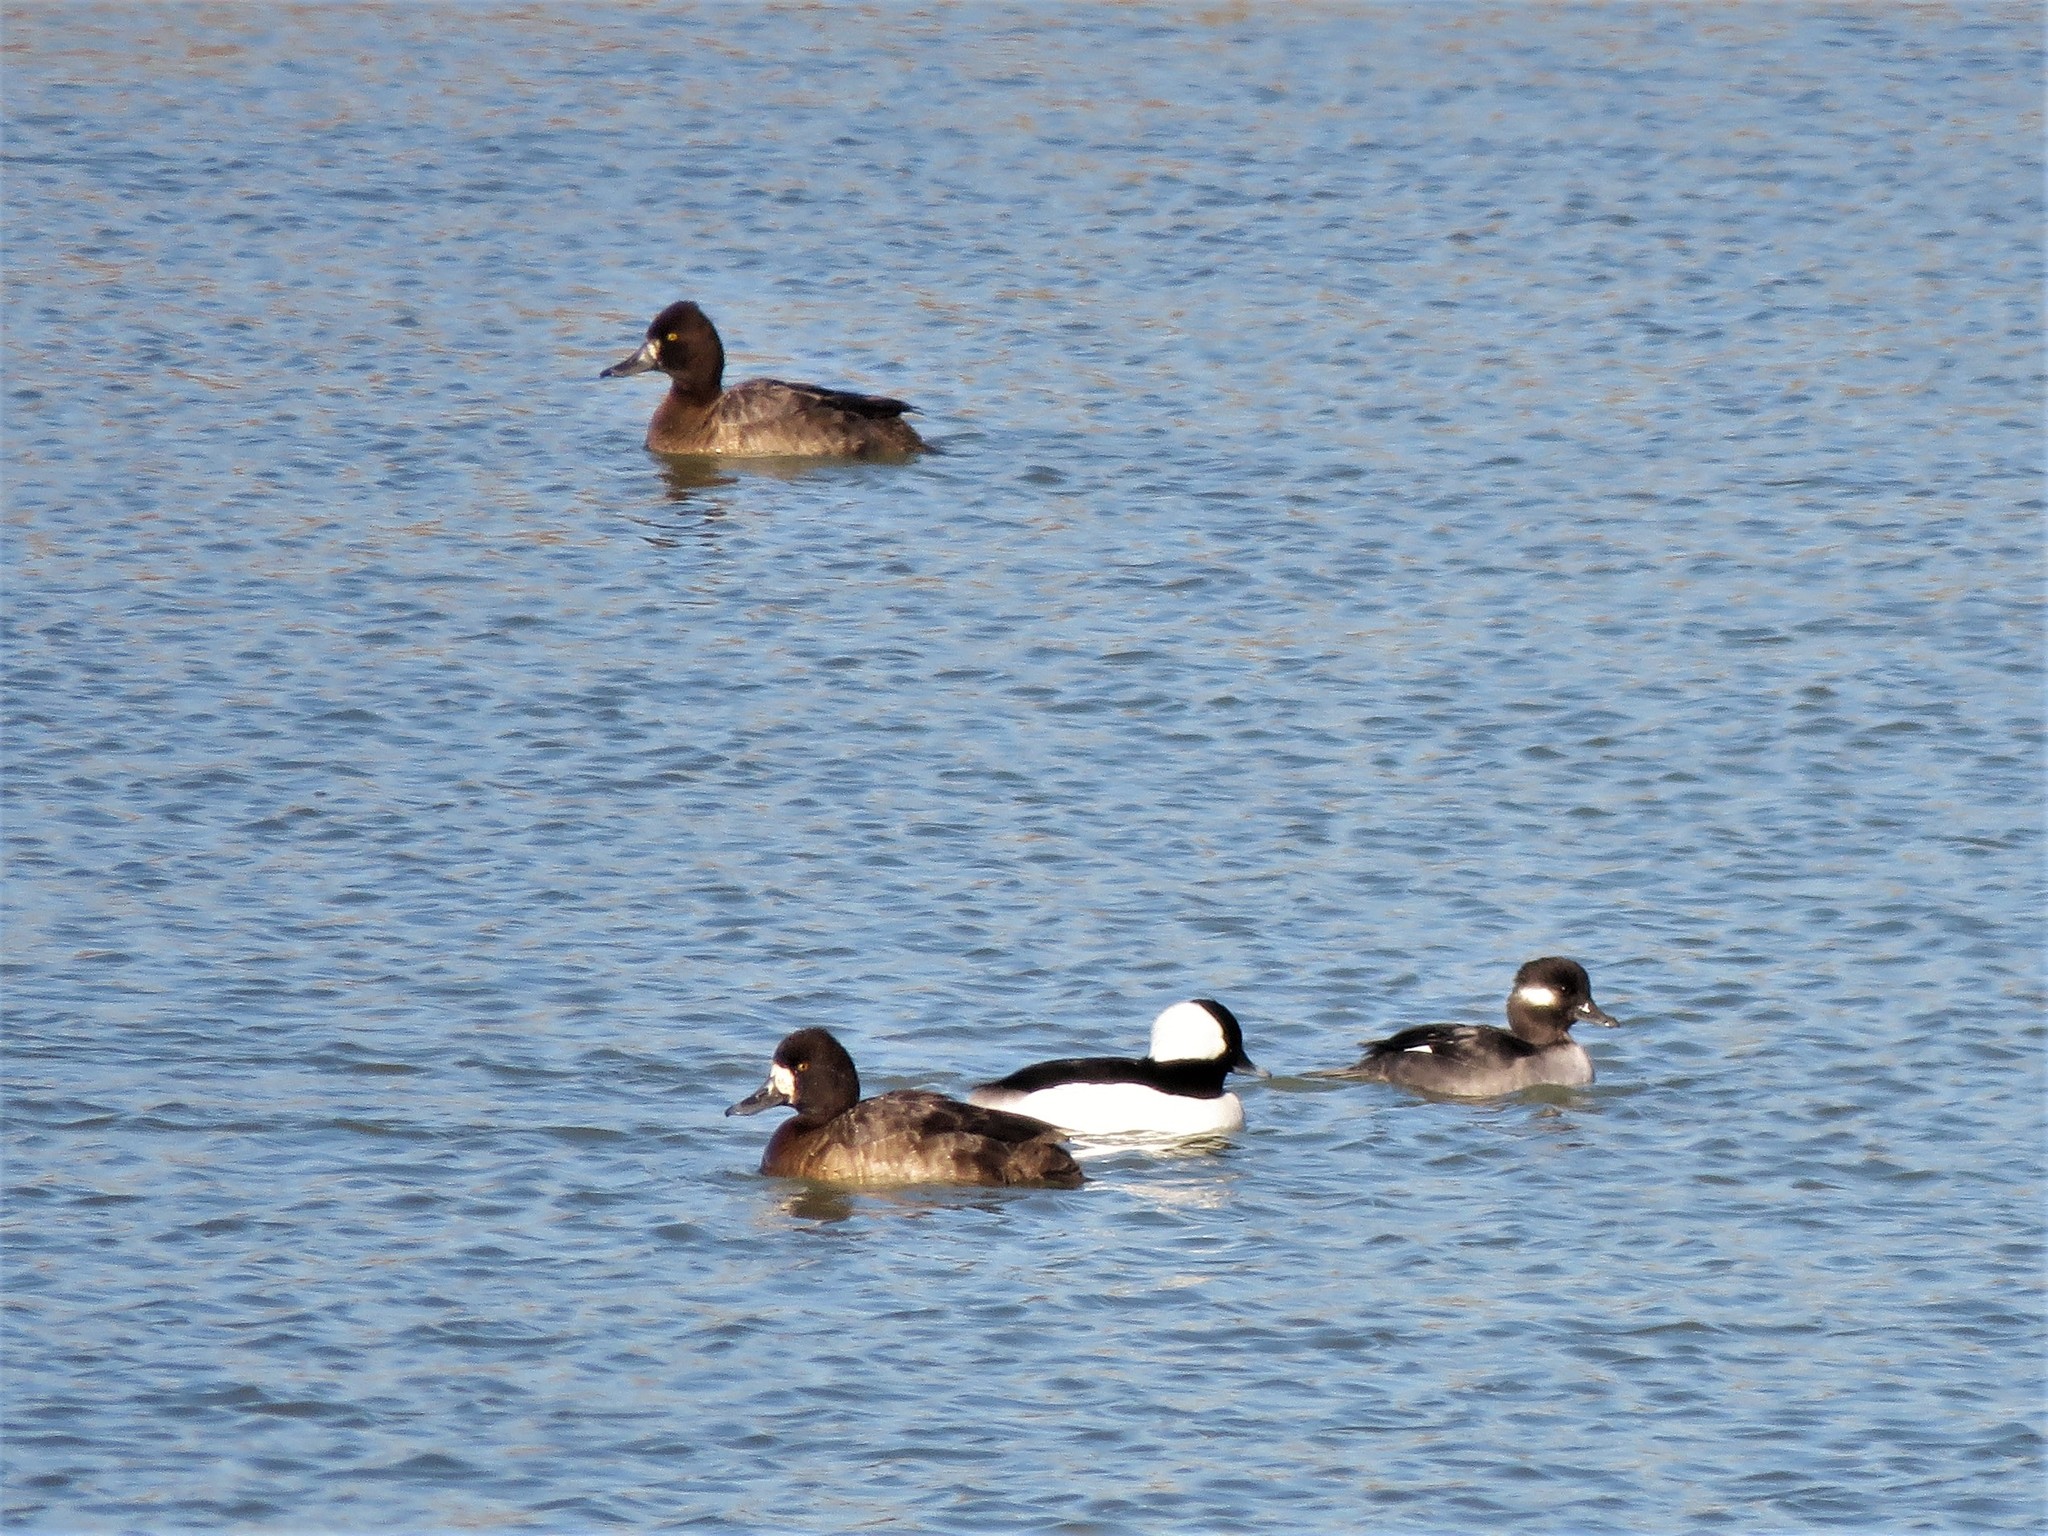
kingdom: Animalia
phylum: Chordata
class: Aves
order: Anseriformes
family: Anatidae
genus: Aythya
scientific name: Aythya affinis
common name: Lesser scaup
